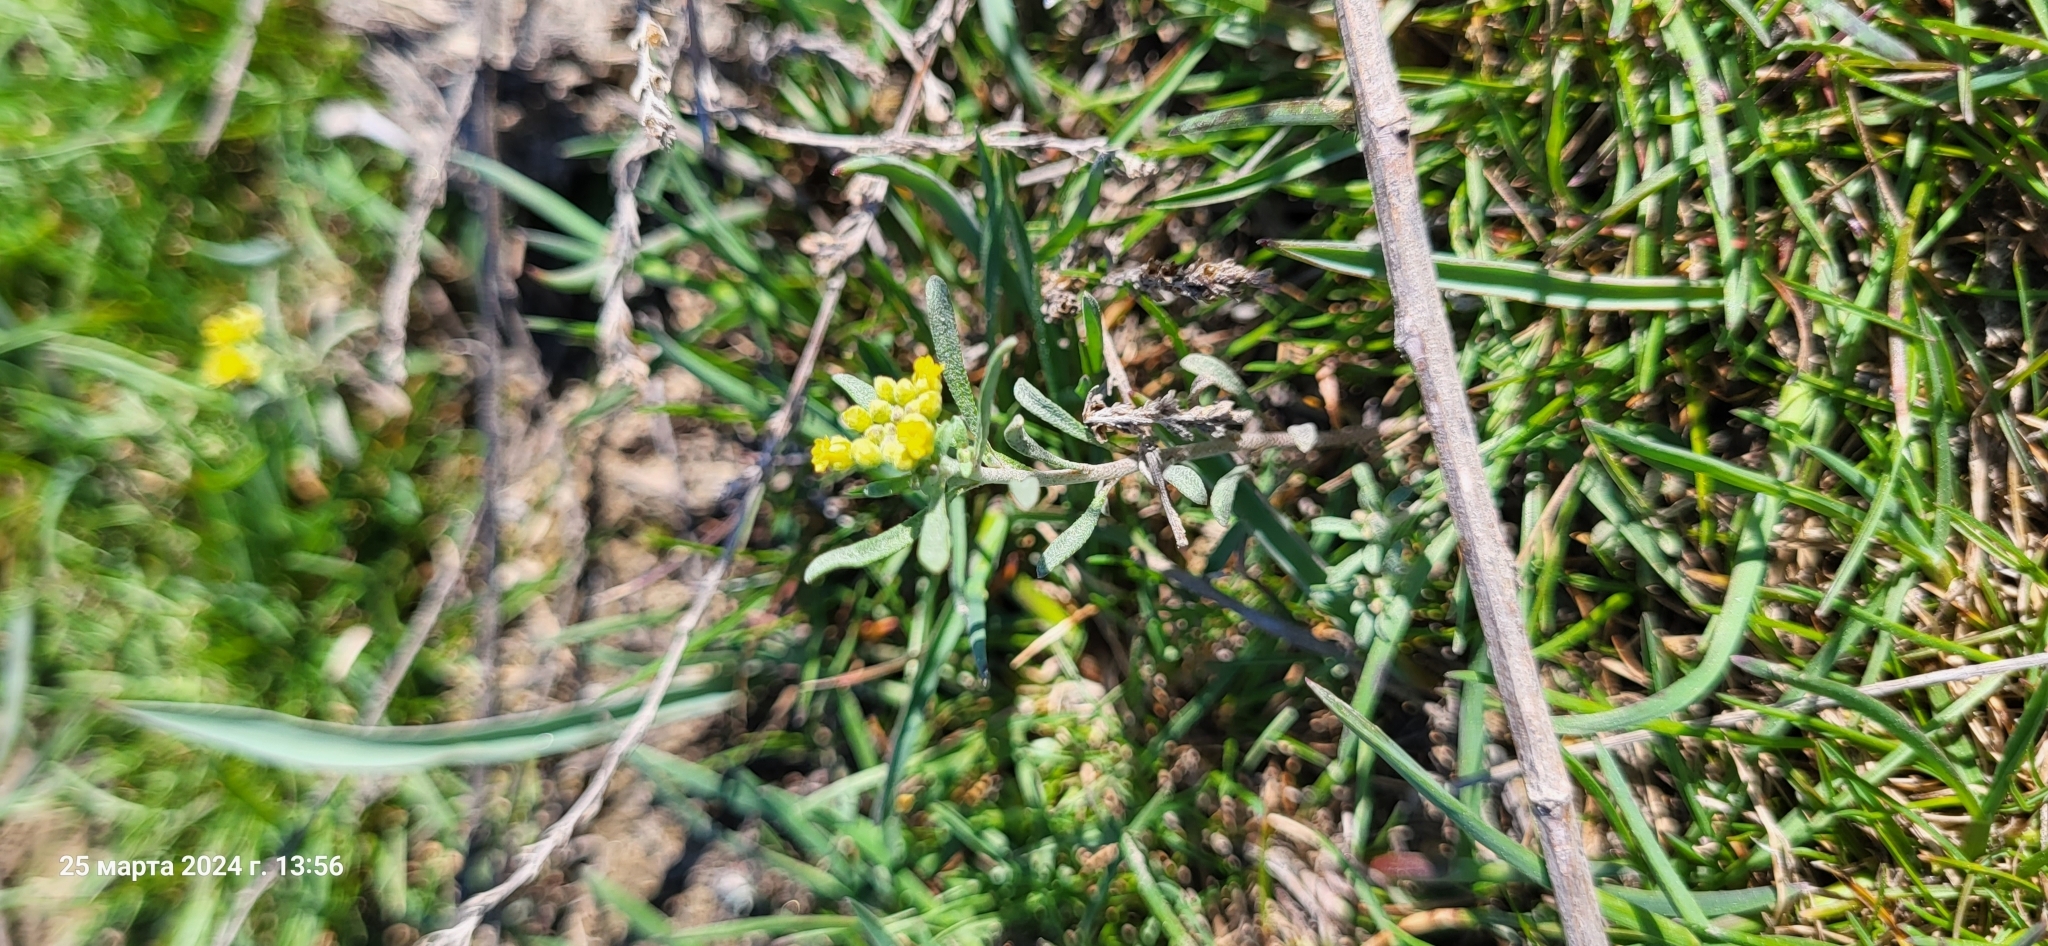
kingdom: Plantae
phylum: Tracheophyta
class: Magnoliopsida
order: Brassicales
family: Brassicaceae
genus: Alyssum
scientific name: Alyssum turkestanicum
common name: Desert alyssum
